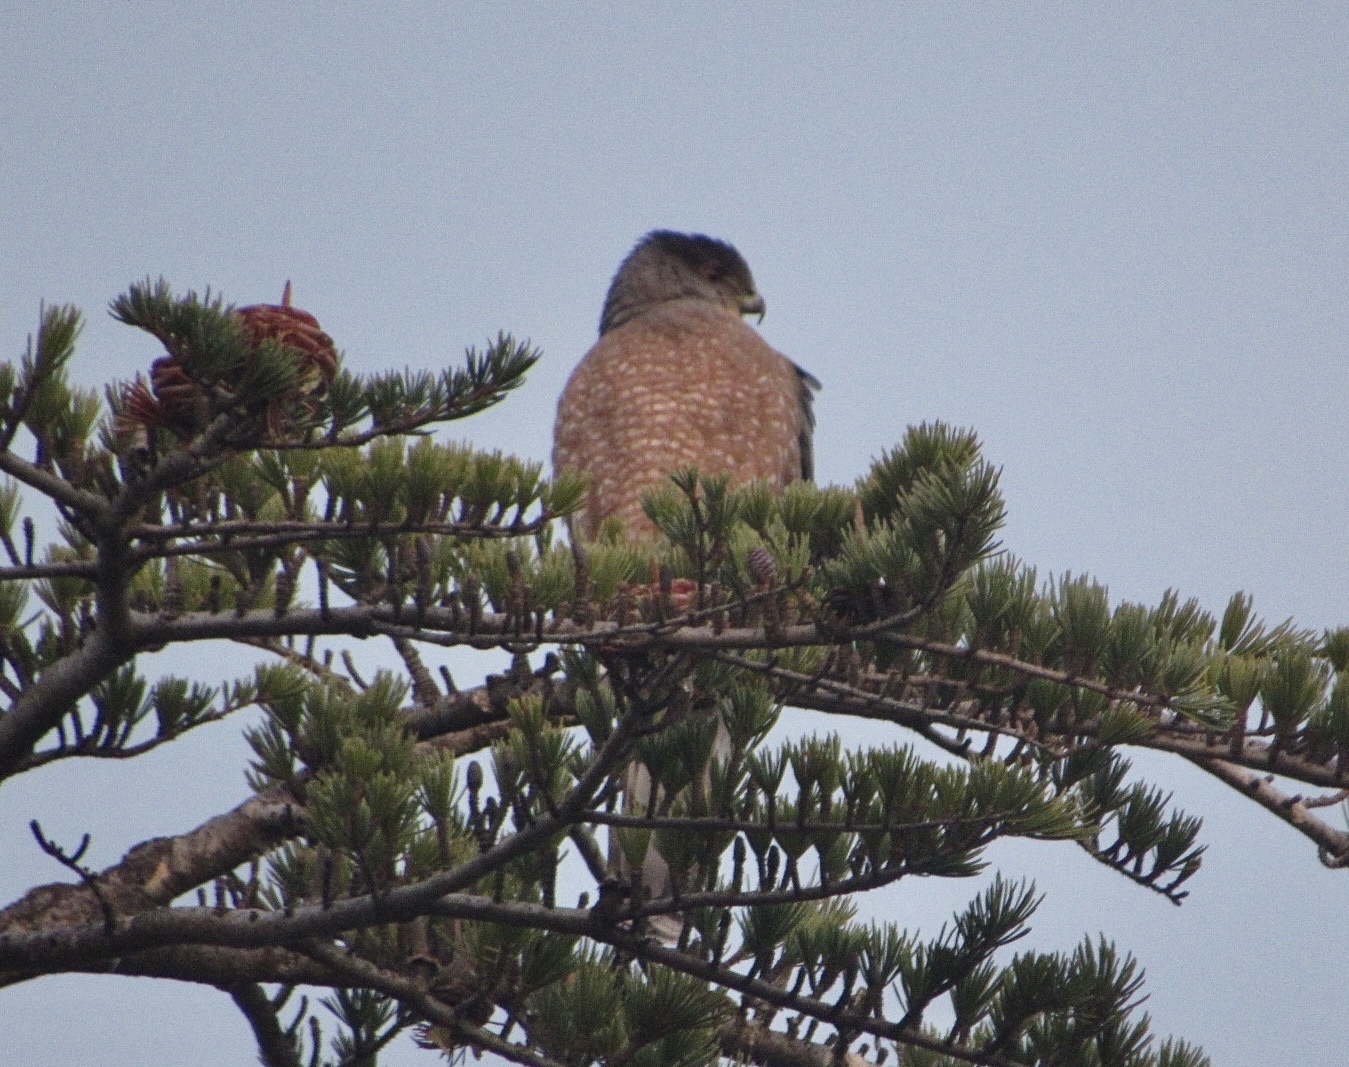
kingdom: Animalia
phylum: Chordata
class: Aves
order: Accipitriformes
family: Accipitridae
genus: Accipiter
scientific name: Accipiter cooperii
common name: Cooper's hawk
